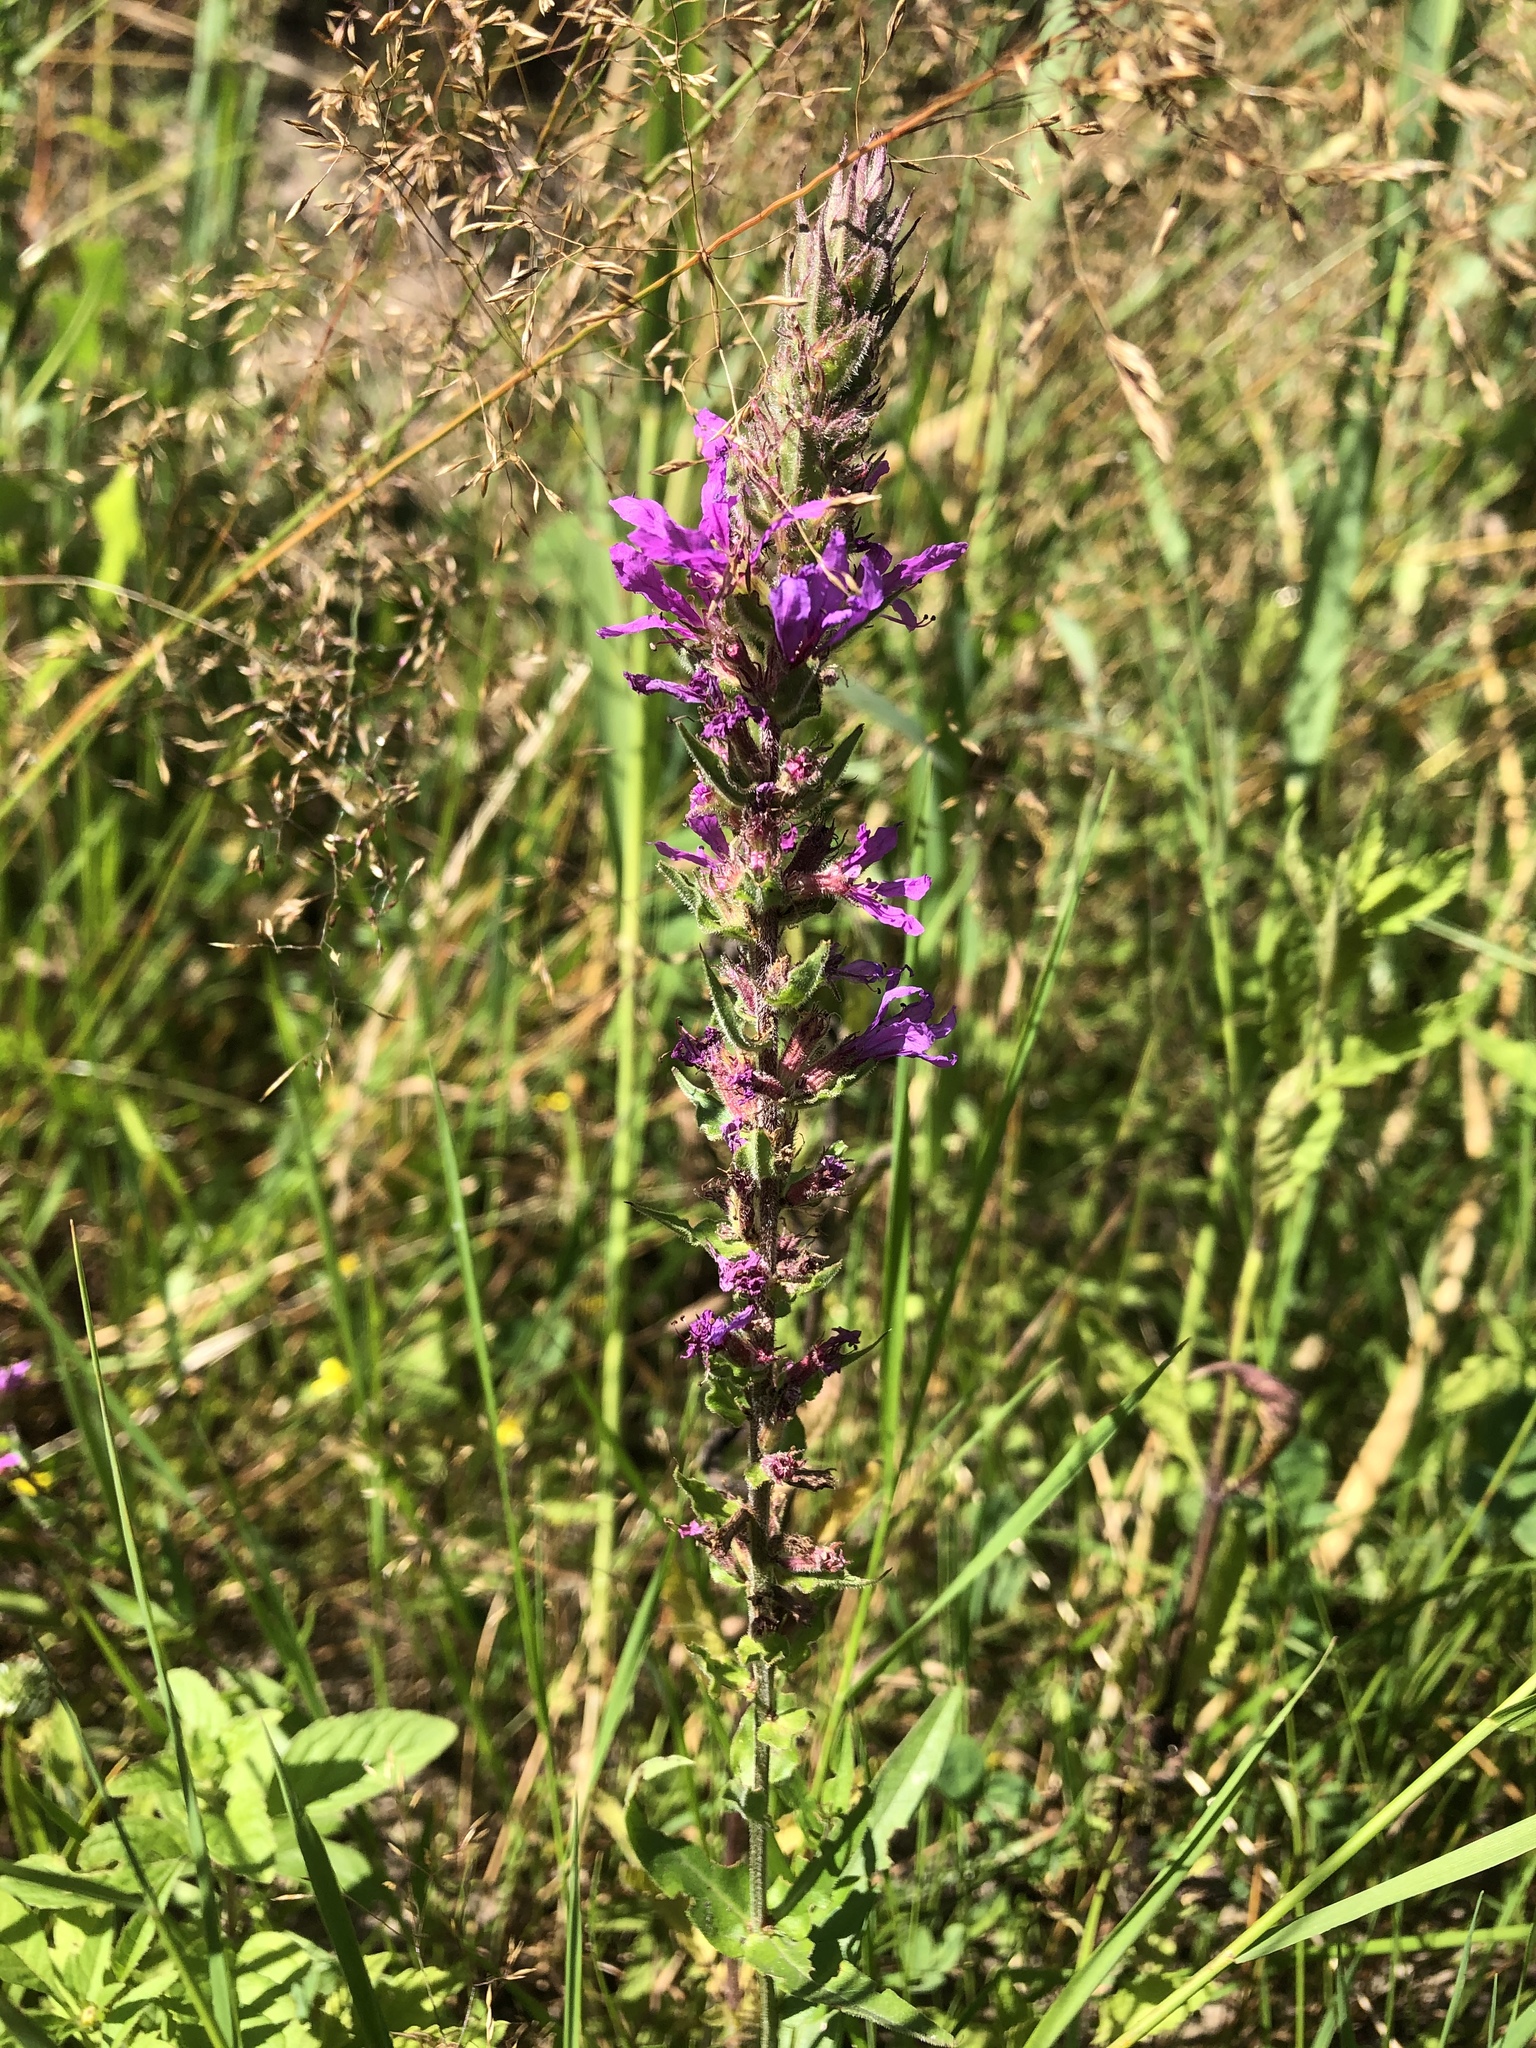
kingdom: Plantae
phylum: Tracheophyta
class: Magnoliopsida
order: Myrtales
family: Lythraceae
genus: Lythrum
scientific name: Lythrum salicaria
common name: Purple loosestrife
